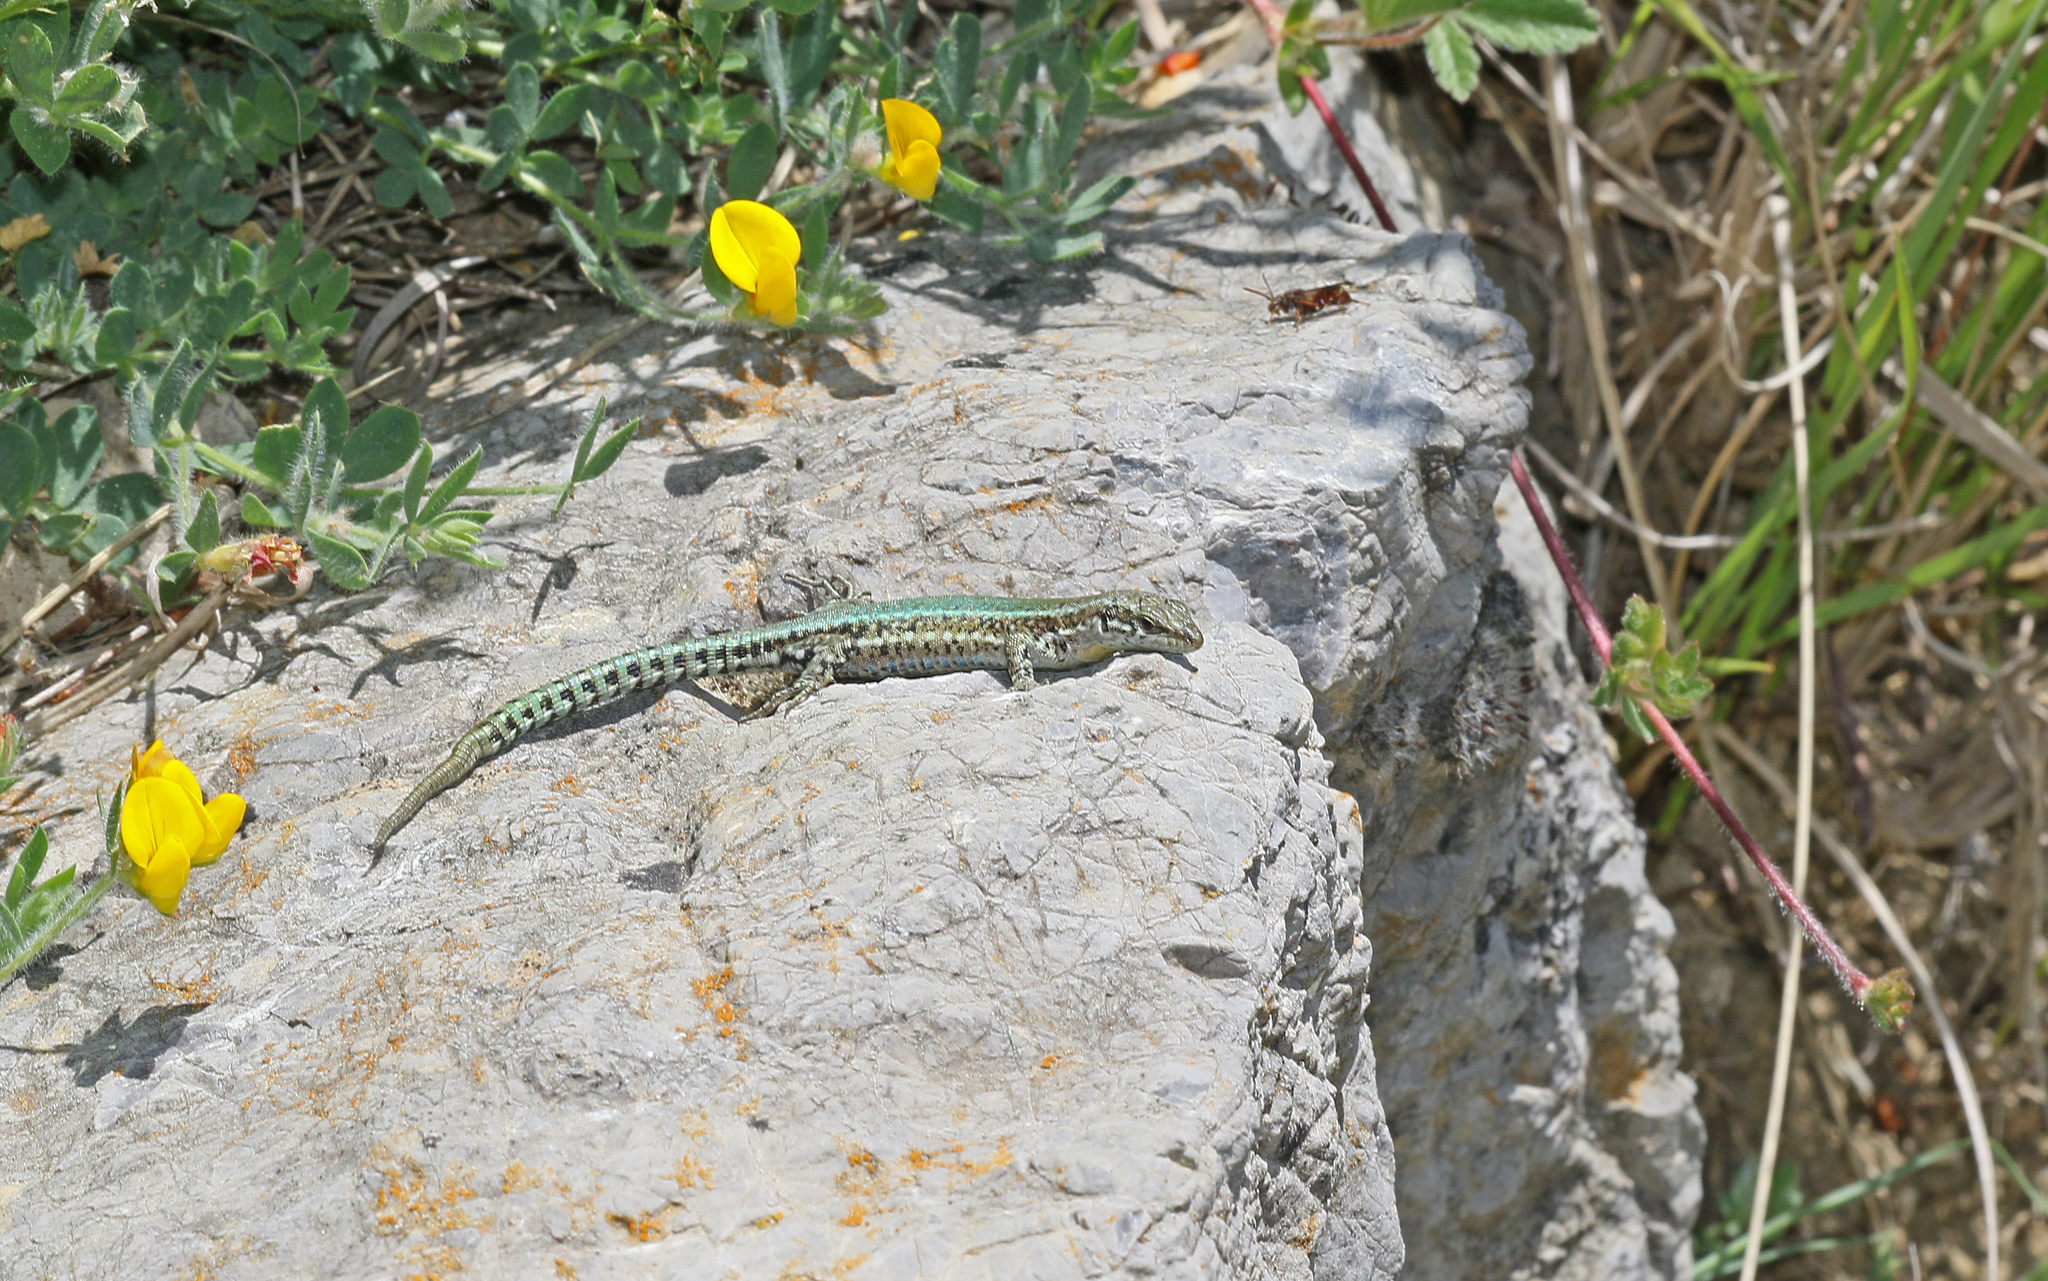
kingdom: Animalia
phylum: Chordata
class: Squamata
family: Lacertidae
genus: Podarcis
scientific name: Podarcis vaucheri
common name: Vaucher's wall lizard
